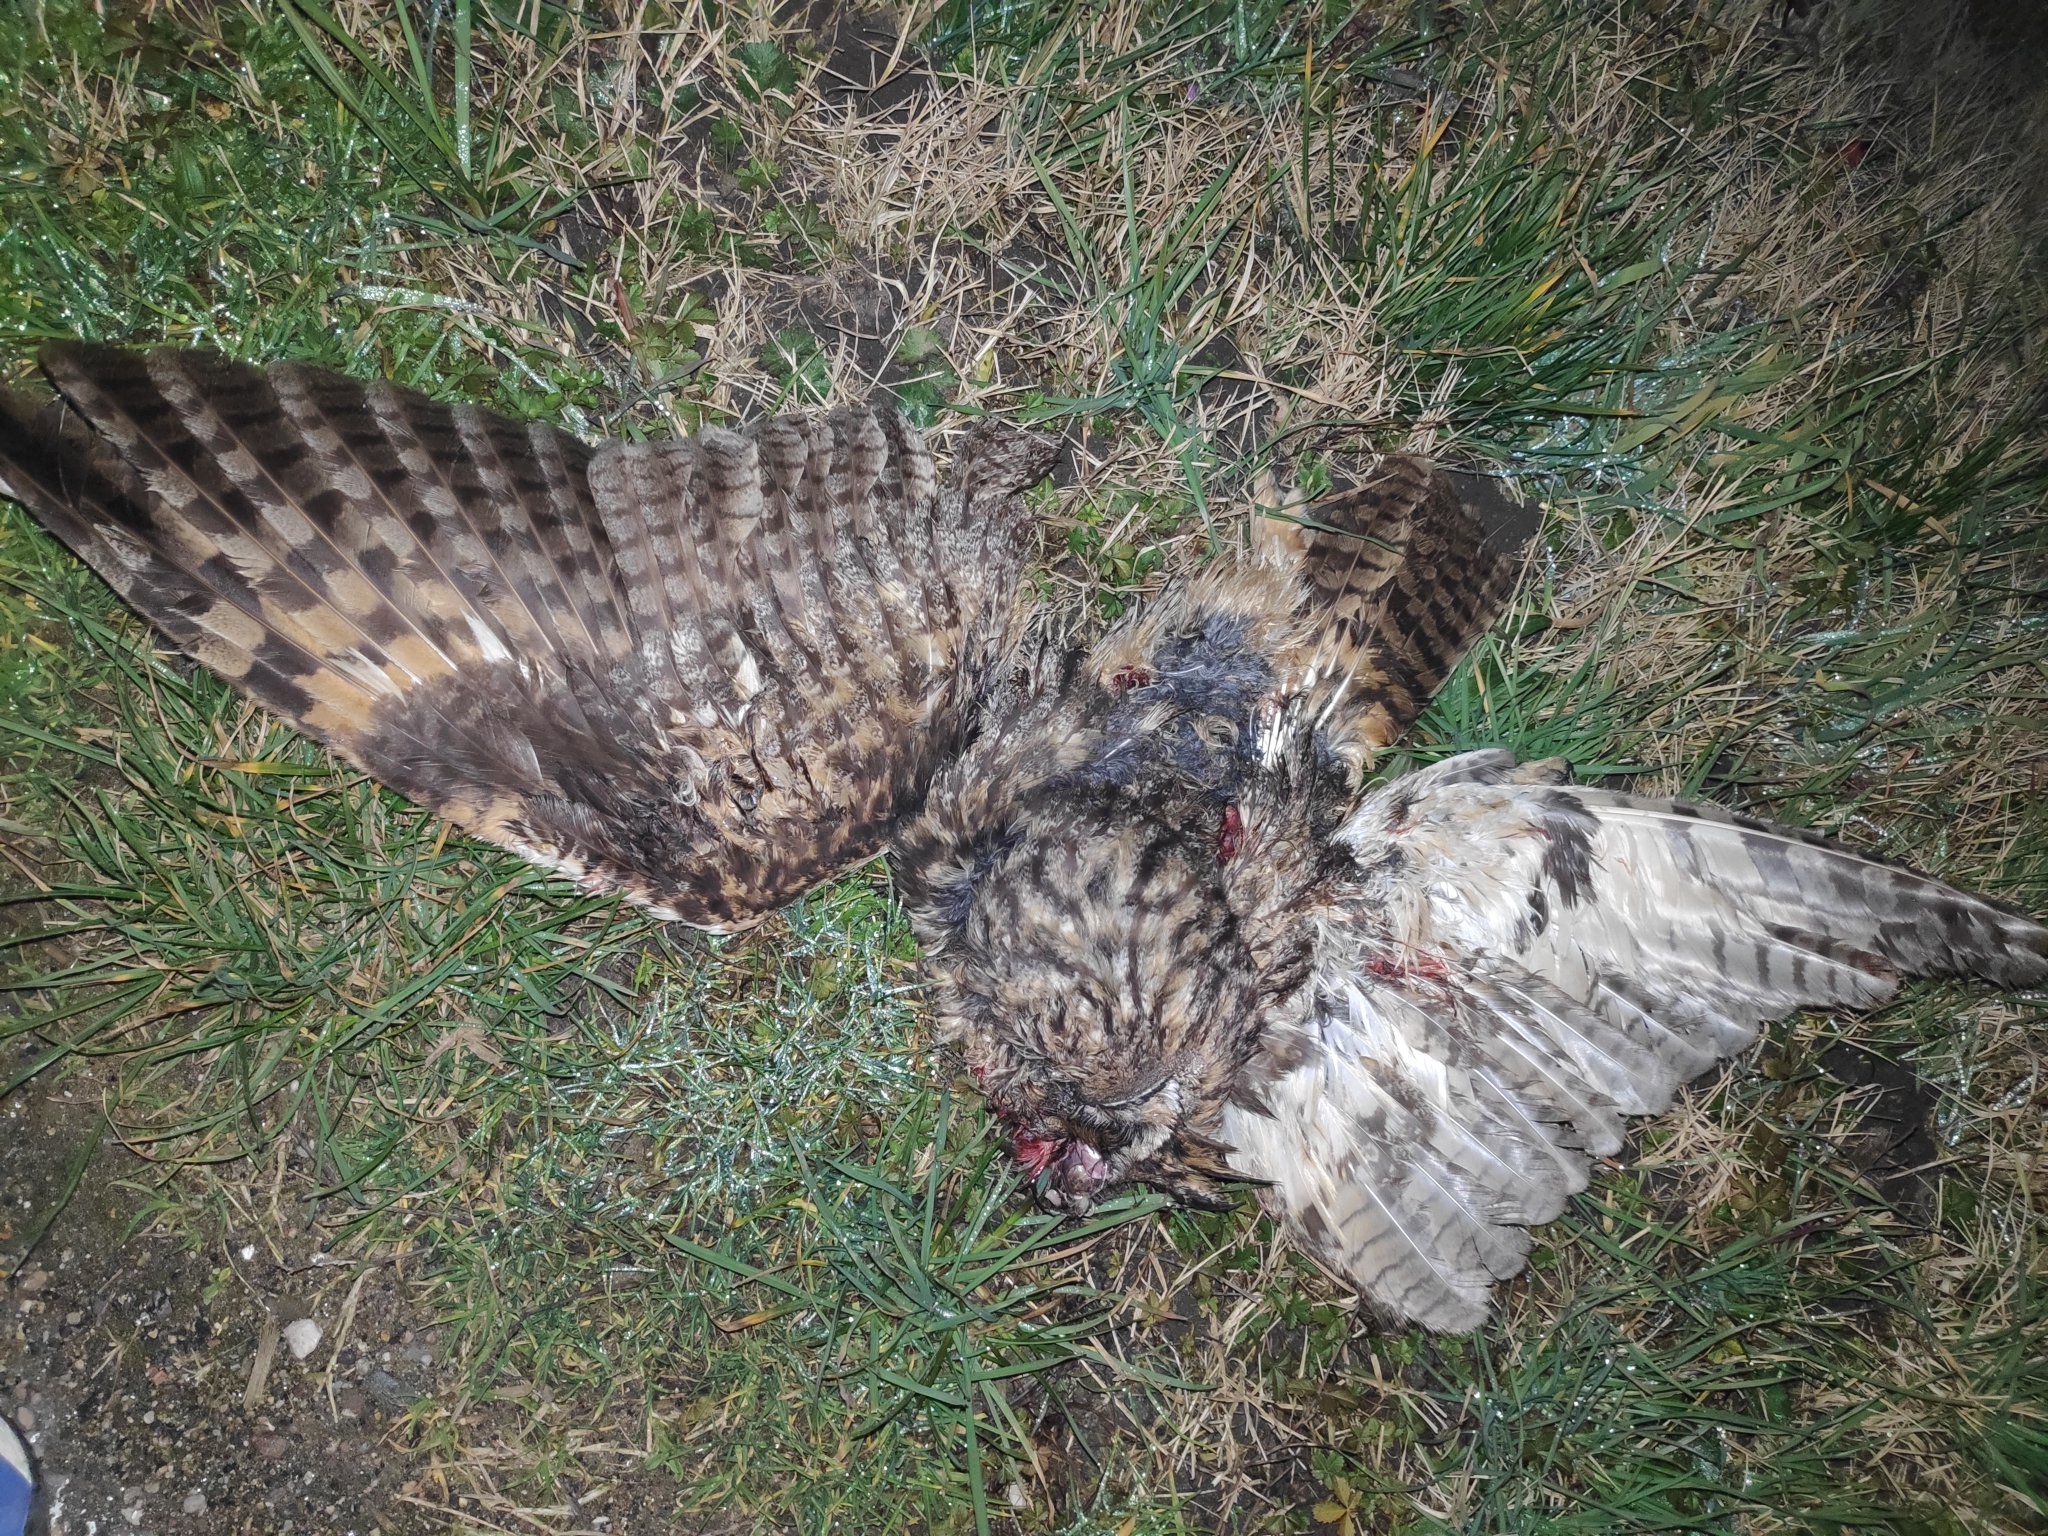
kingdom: Animalia
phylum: Chordata
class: Aves
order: Strigiformes
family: Strigidae
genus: Asio
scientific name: Asio otus
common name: Long-eared owl
